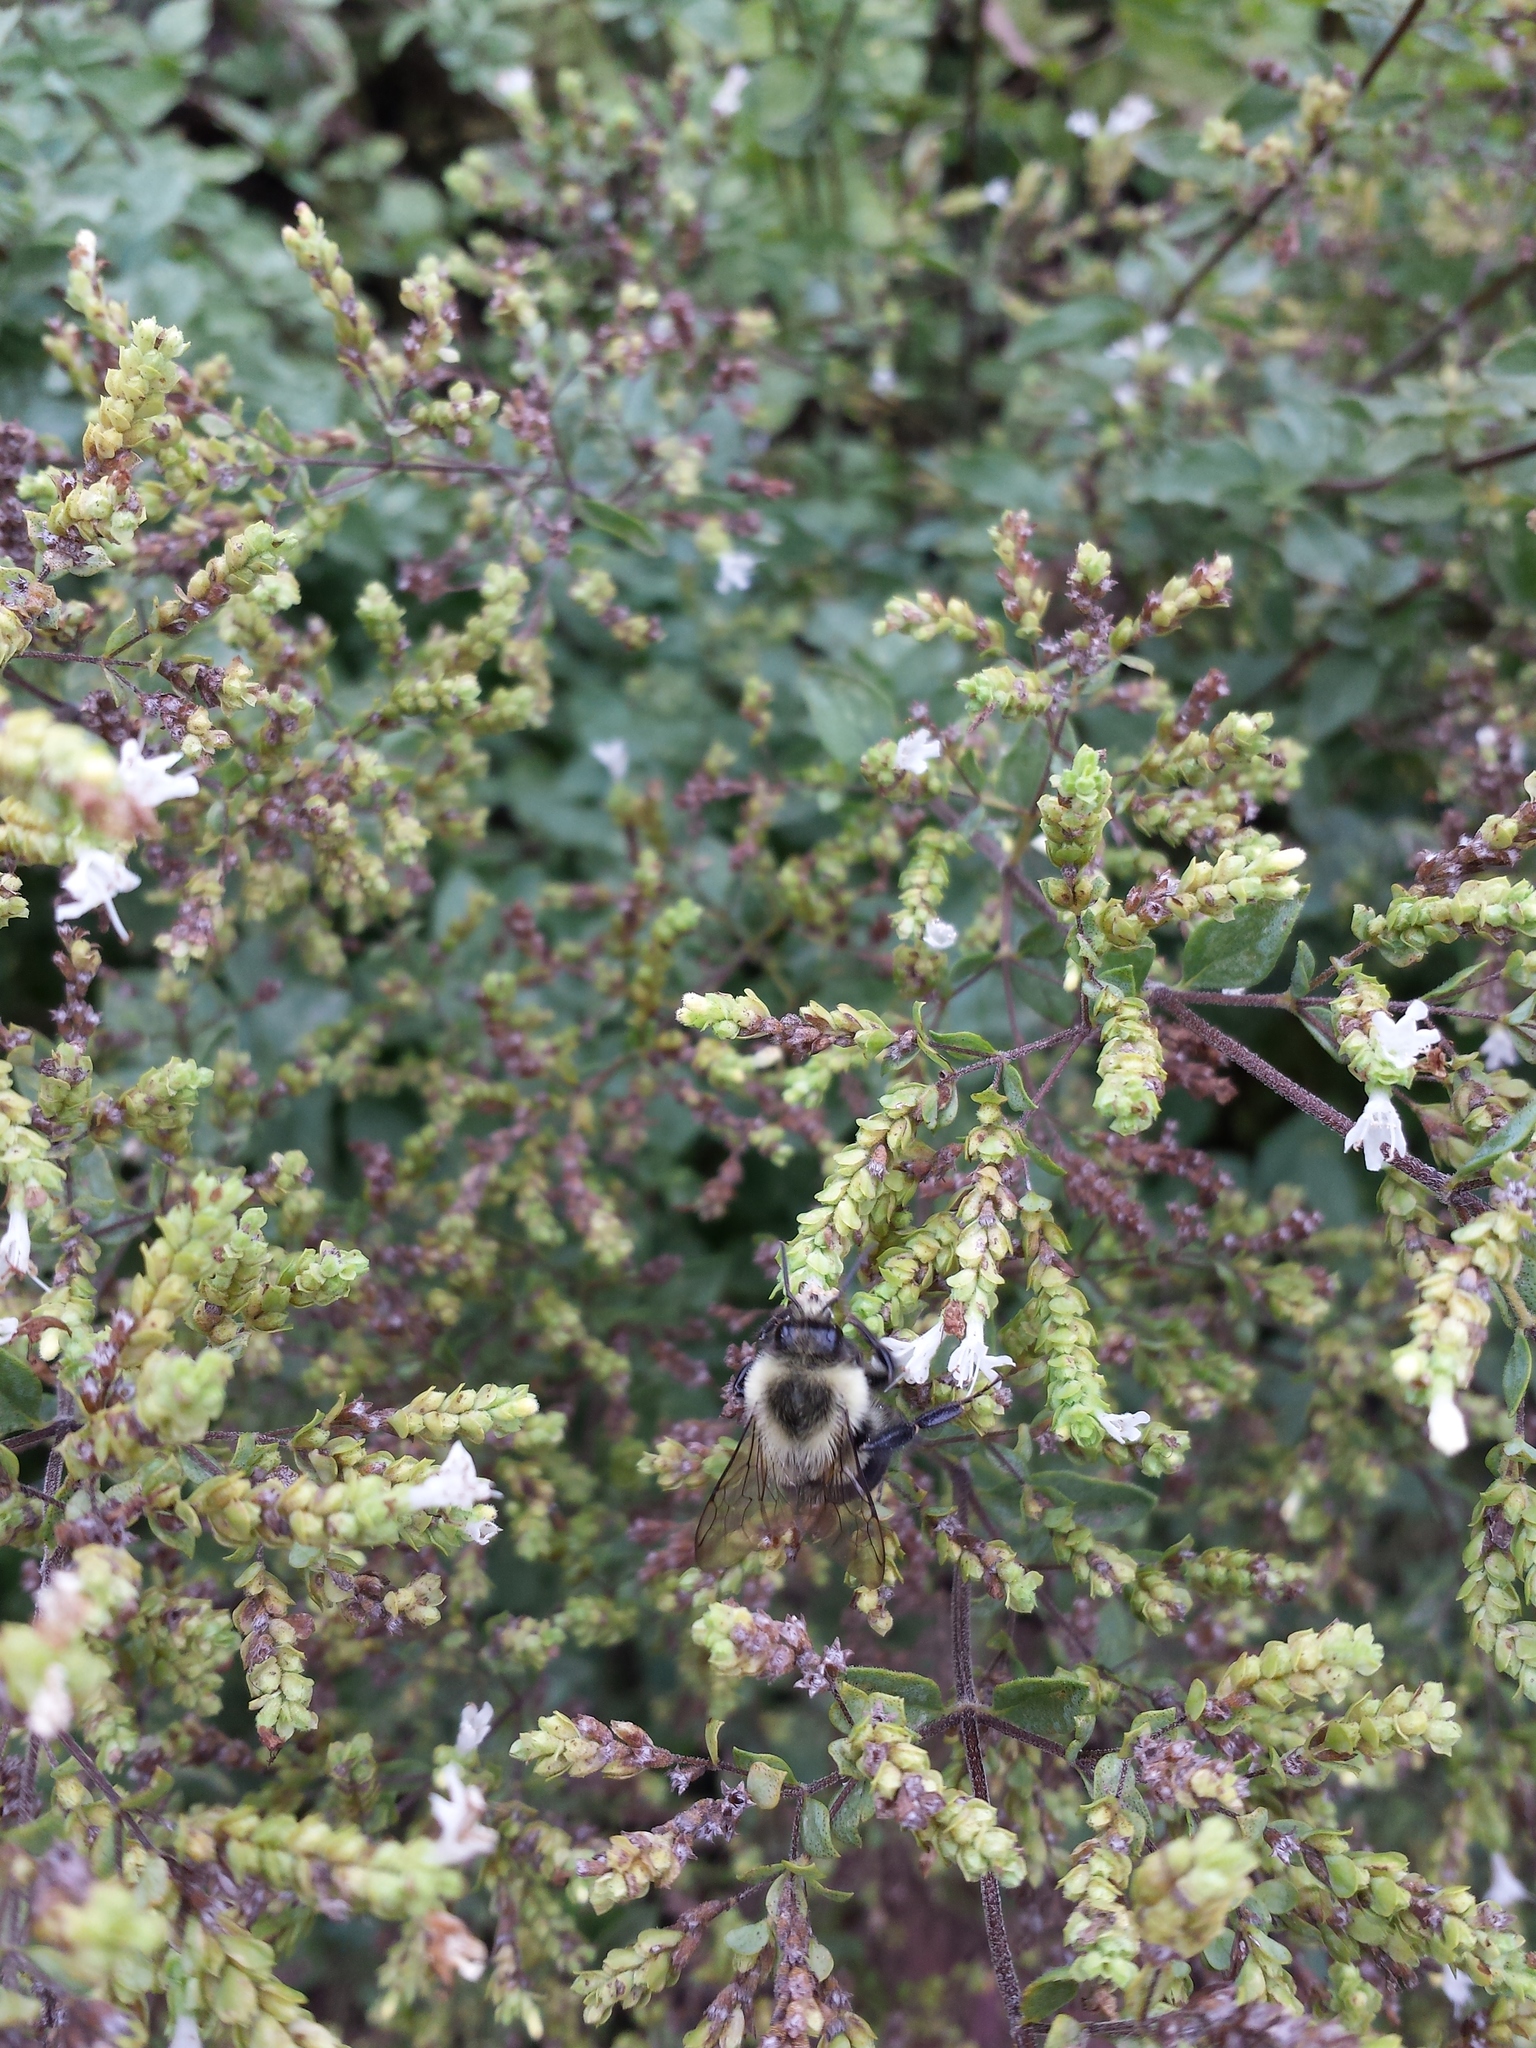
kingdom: Animalia
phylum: Arthropoda
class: Insecta
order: Hymenoptera
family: Apidae
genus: Bombus
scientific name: Bombus impatiens
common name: Common eastern bumble bee
